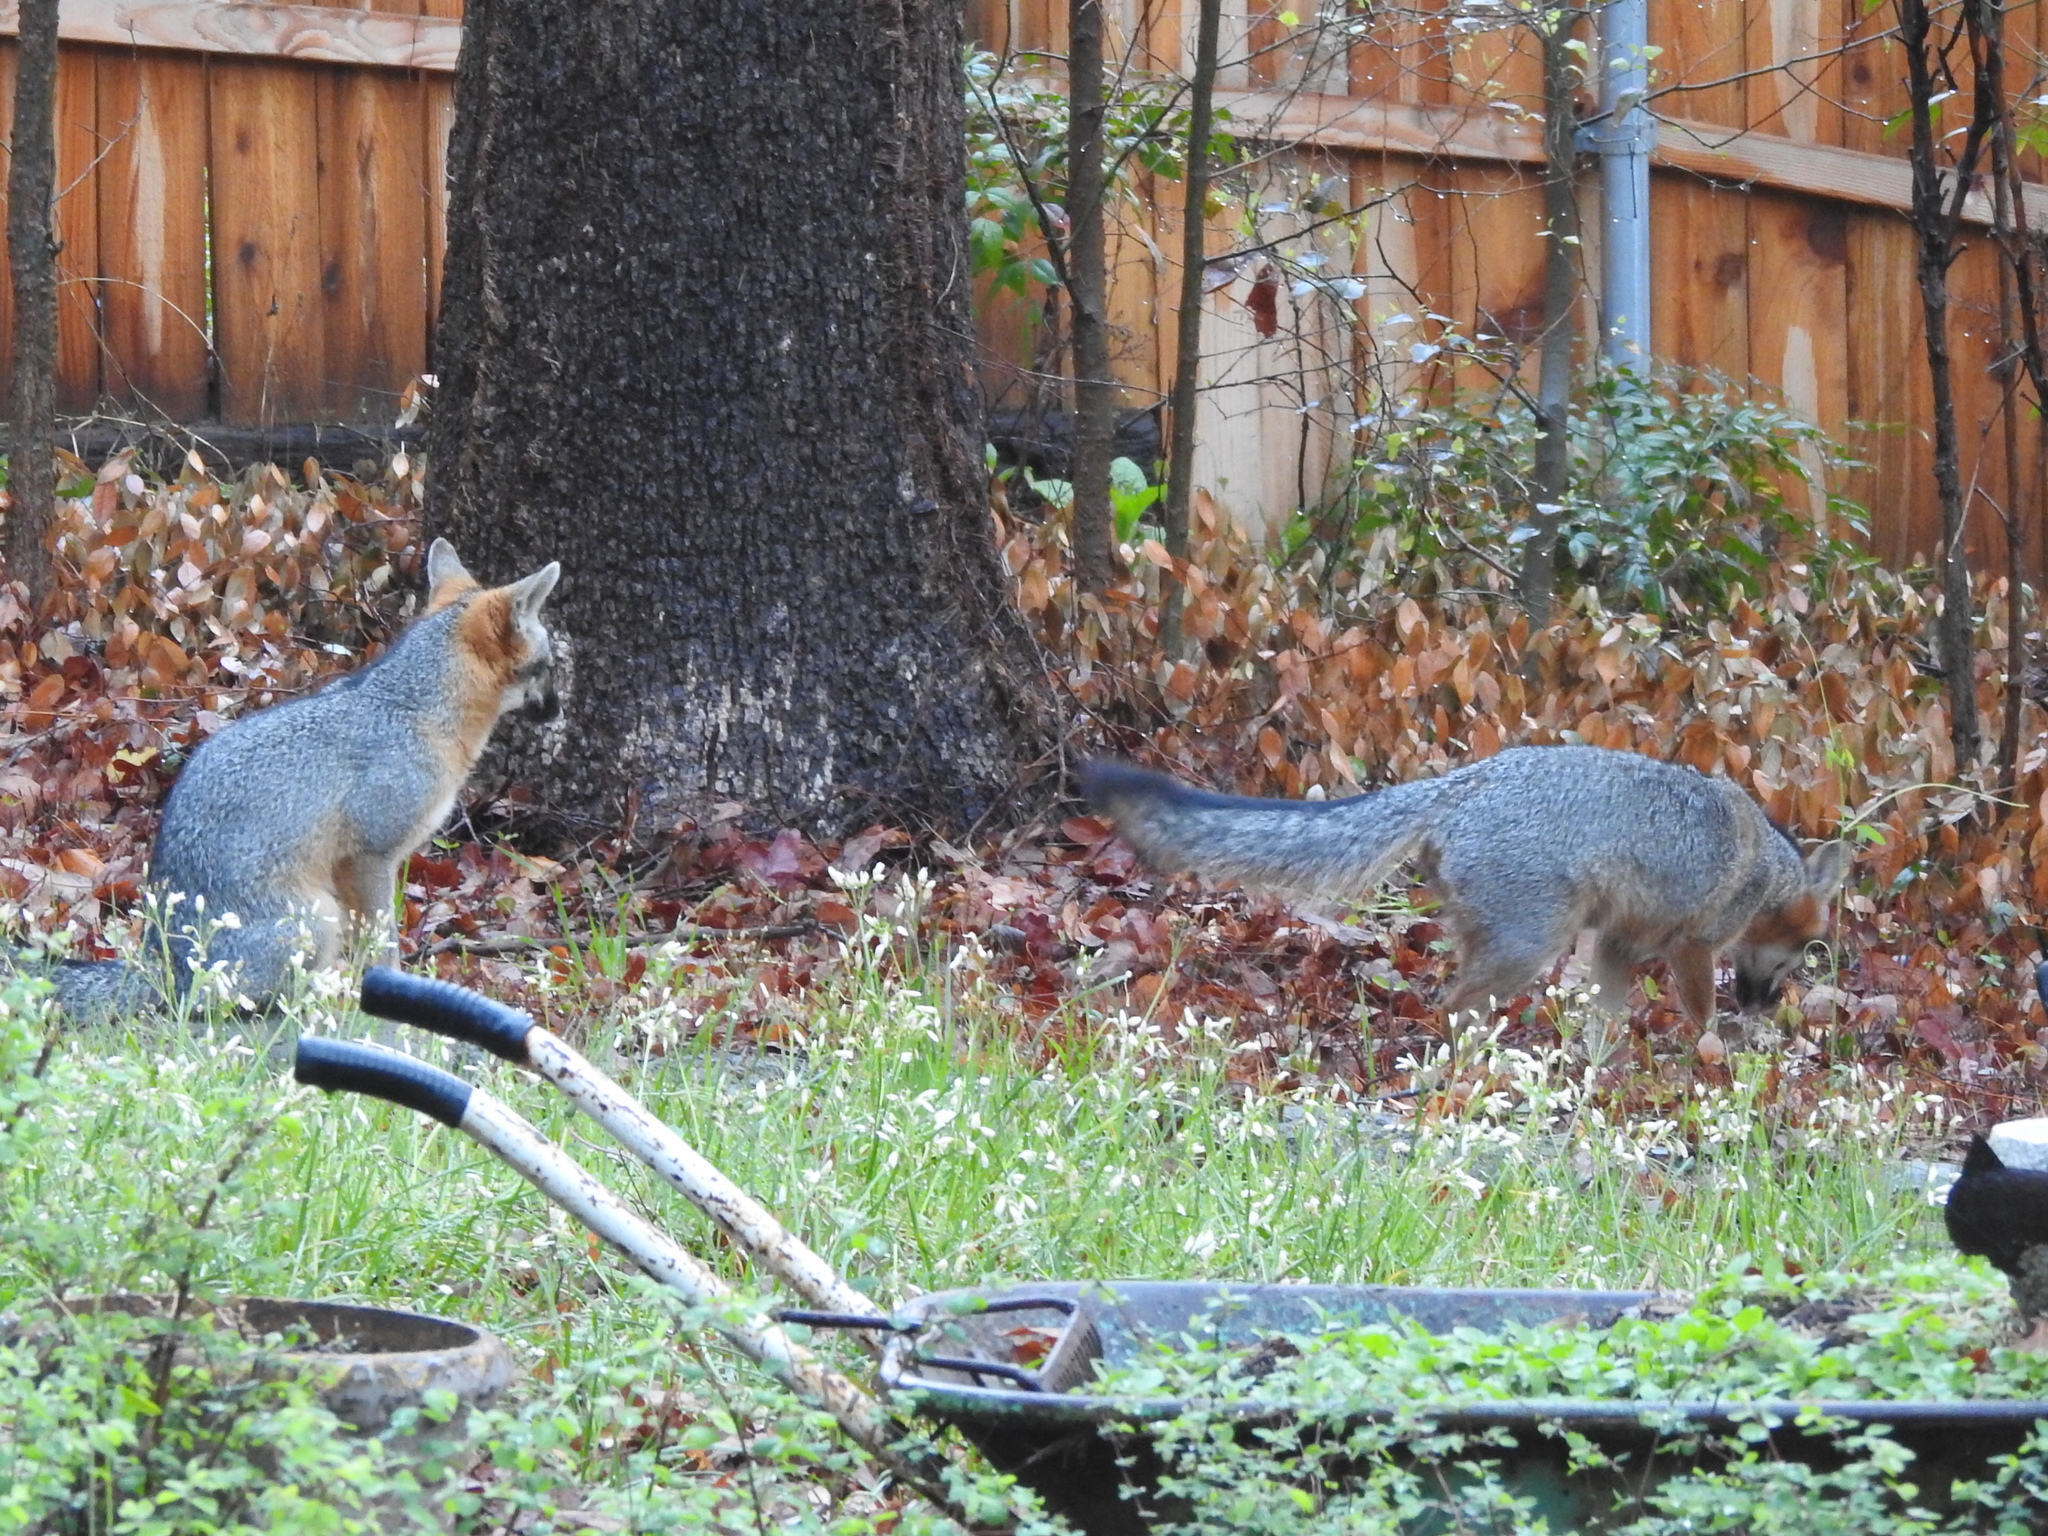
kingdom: Animalia
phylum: Chordata
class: Mammalia
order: Carnivora
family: Canidae
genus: Urocyon
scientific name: Urocyon cinereoargenteus
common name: Gray fox
